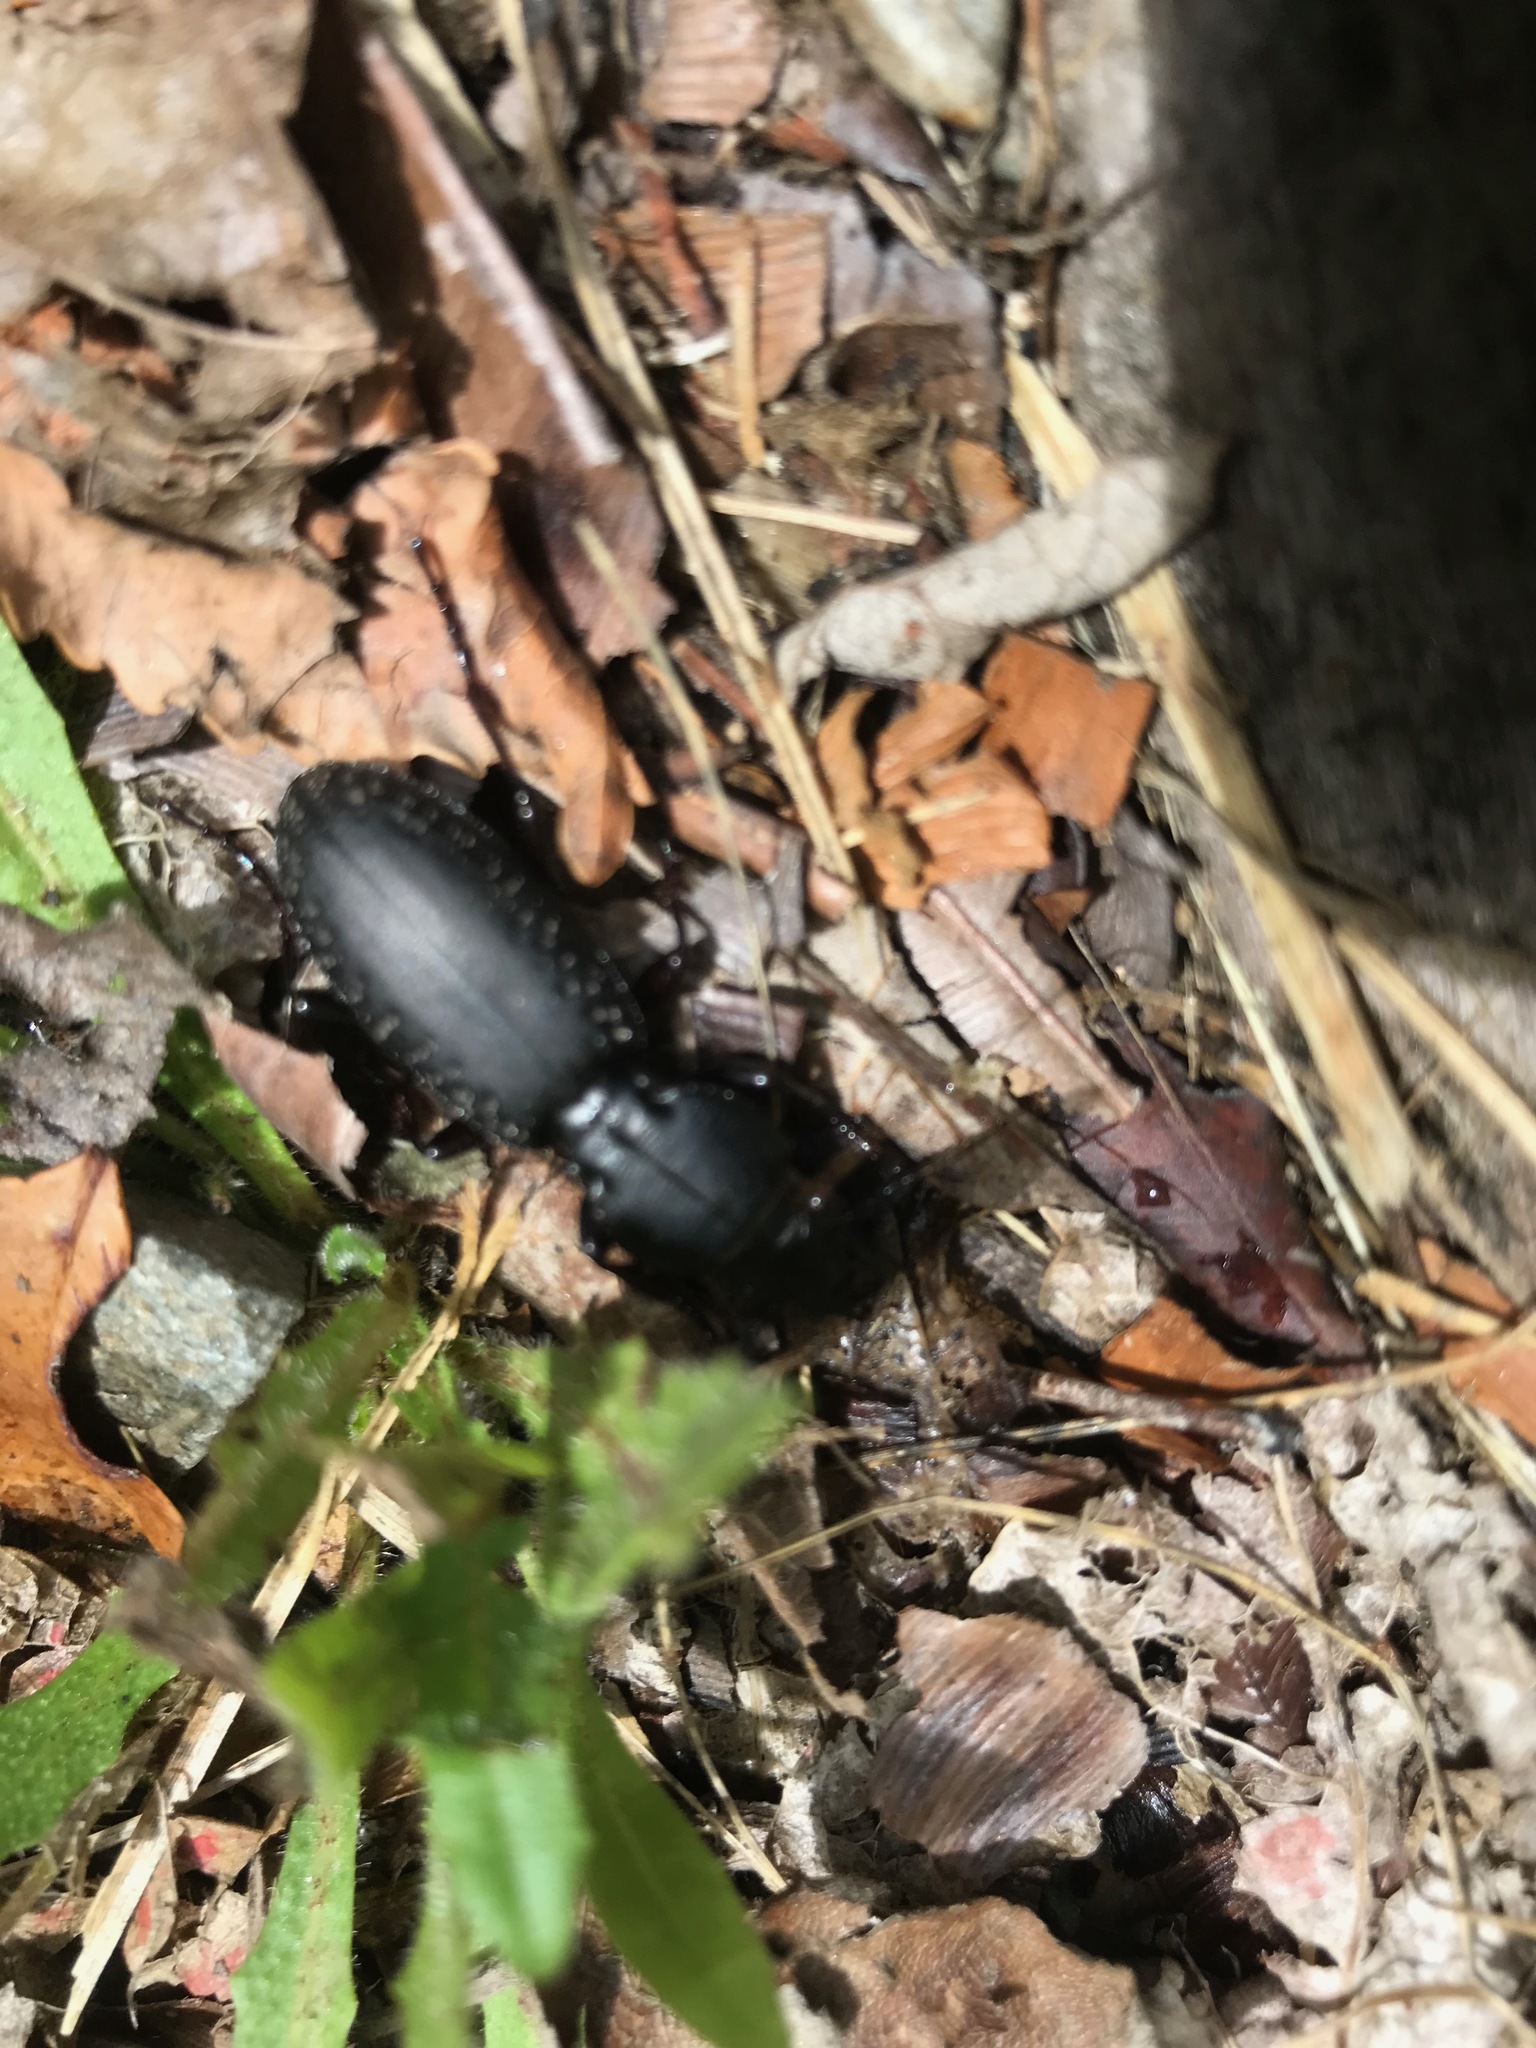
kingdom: Animalia
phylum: Arthropoda
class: Insecta
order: Coleoptera
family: Carabidae
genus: Mecodema
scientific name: Mecodema ducale
